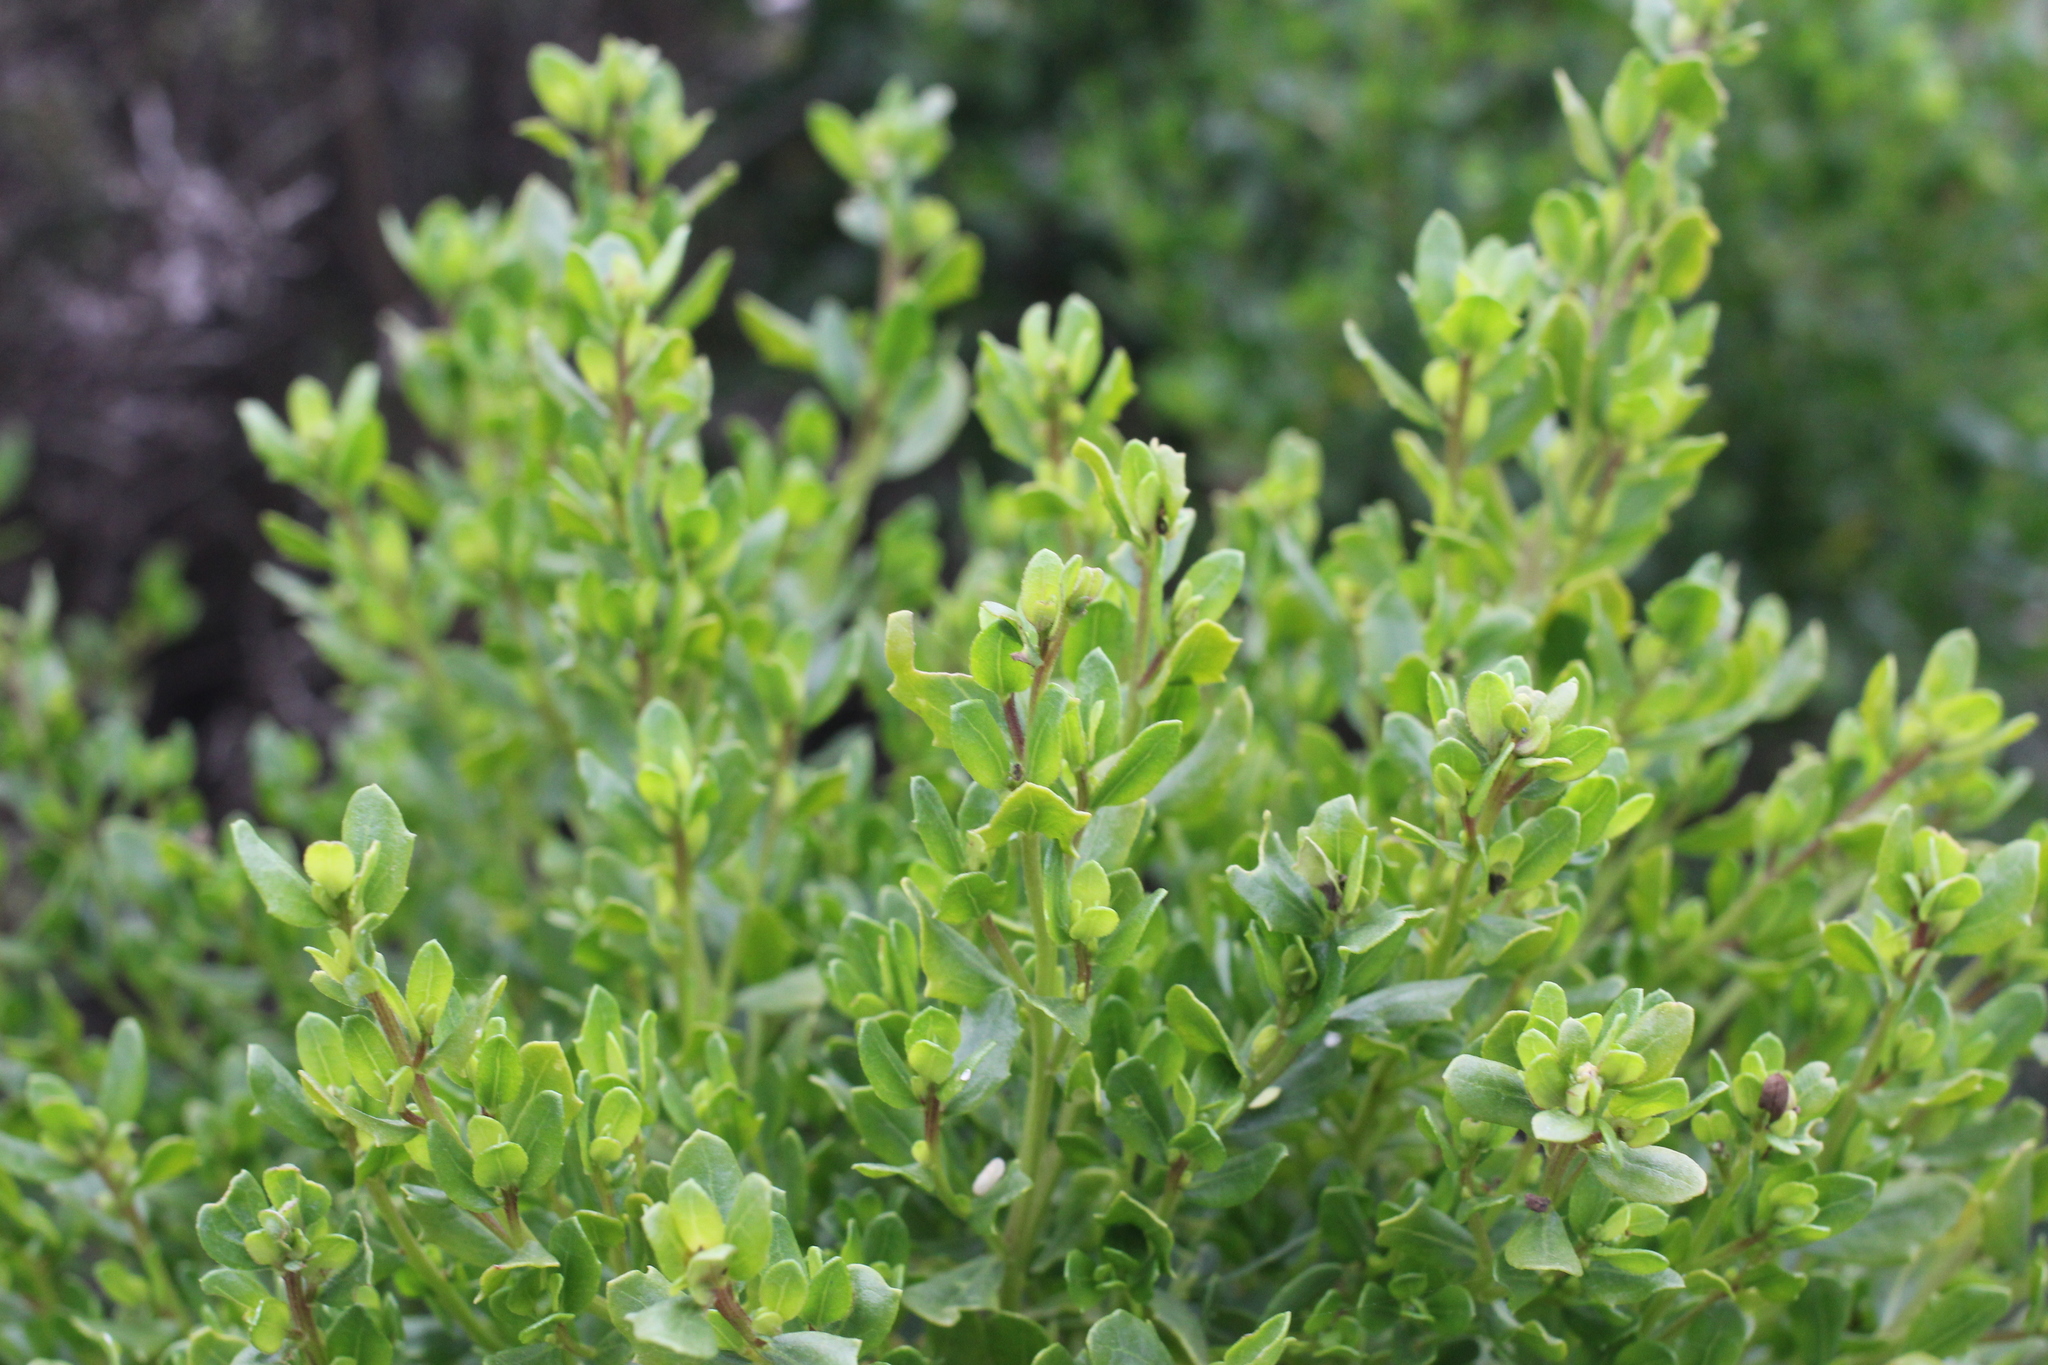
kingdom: Plantae
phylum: Tracheophyta
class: Magnoliopsida
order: Asterales
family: Asteraceae
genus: Baccharis
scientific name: Baccharis pilularis
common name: Coyotebrush
